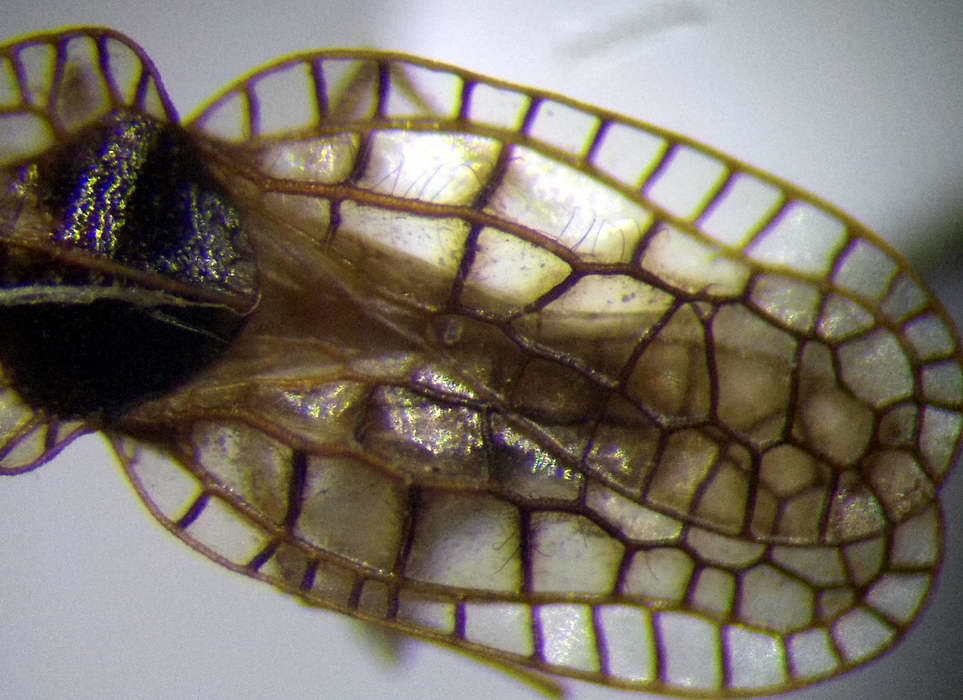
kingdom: Animalia
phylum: Arthropoda
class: Insecta
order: Hemiptera
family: Tingidae
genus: Derephysia
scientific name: Derephysia cristata
